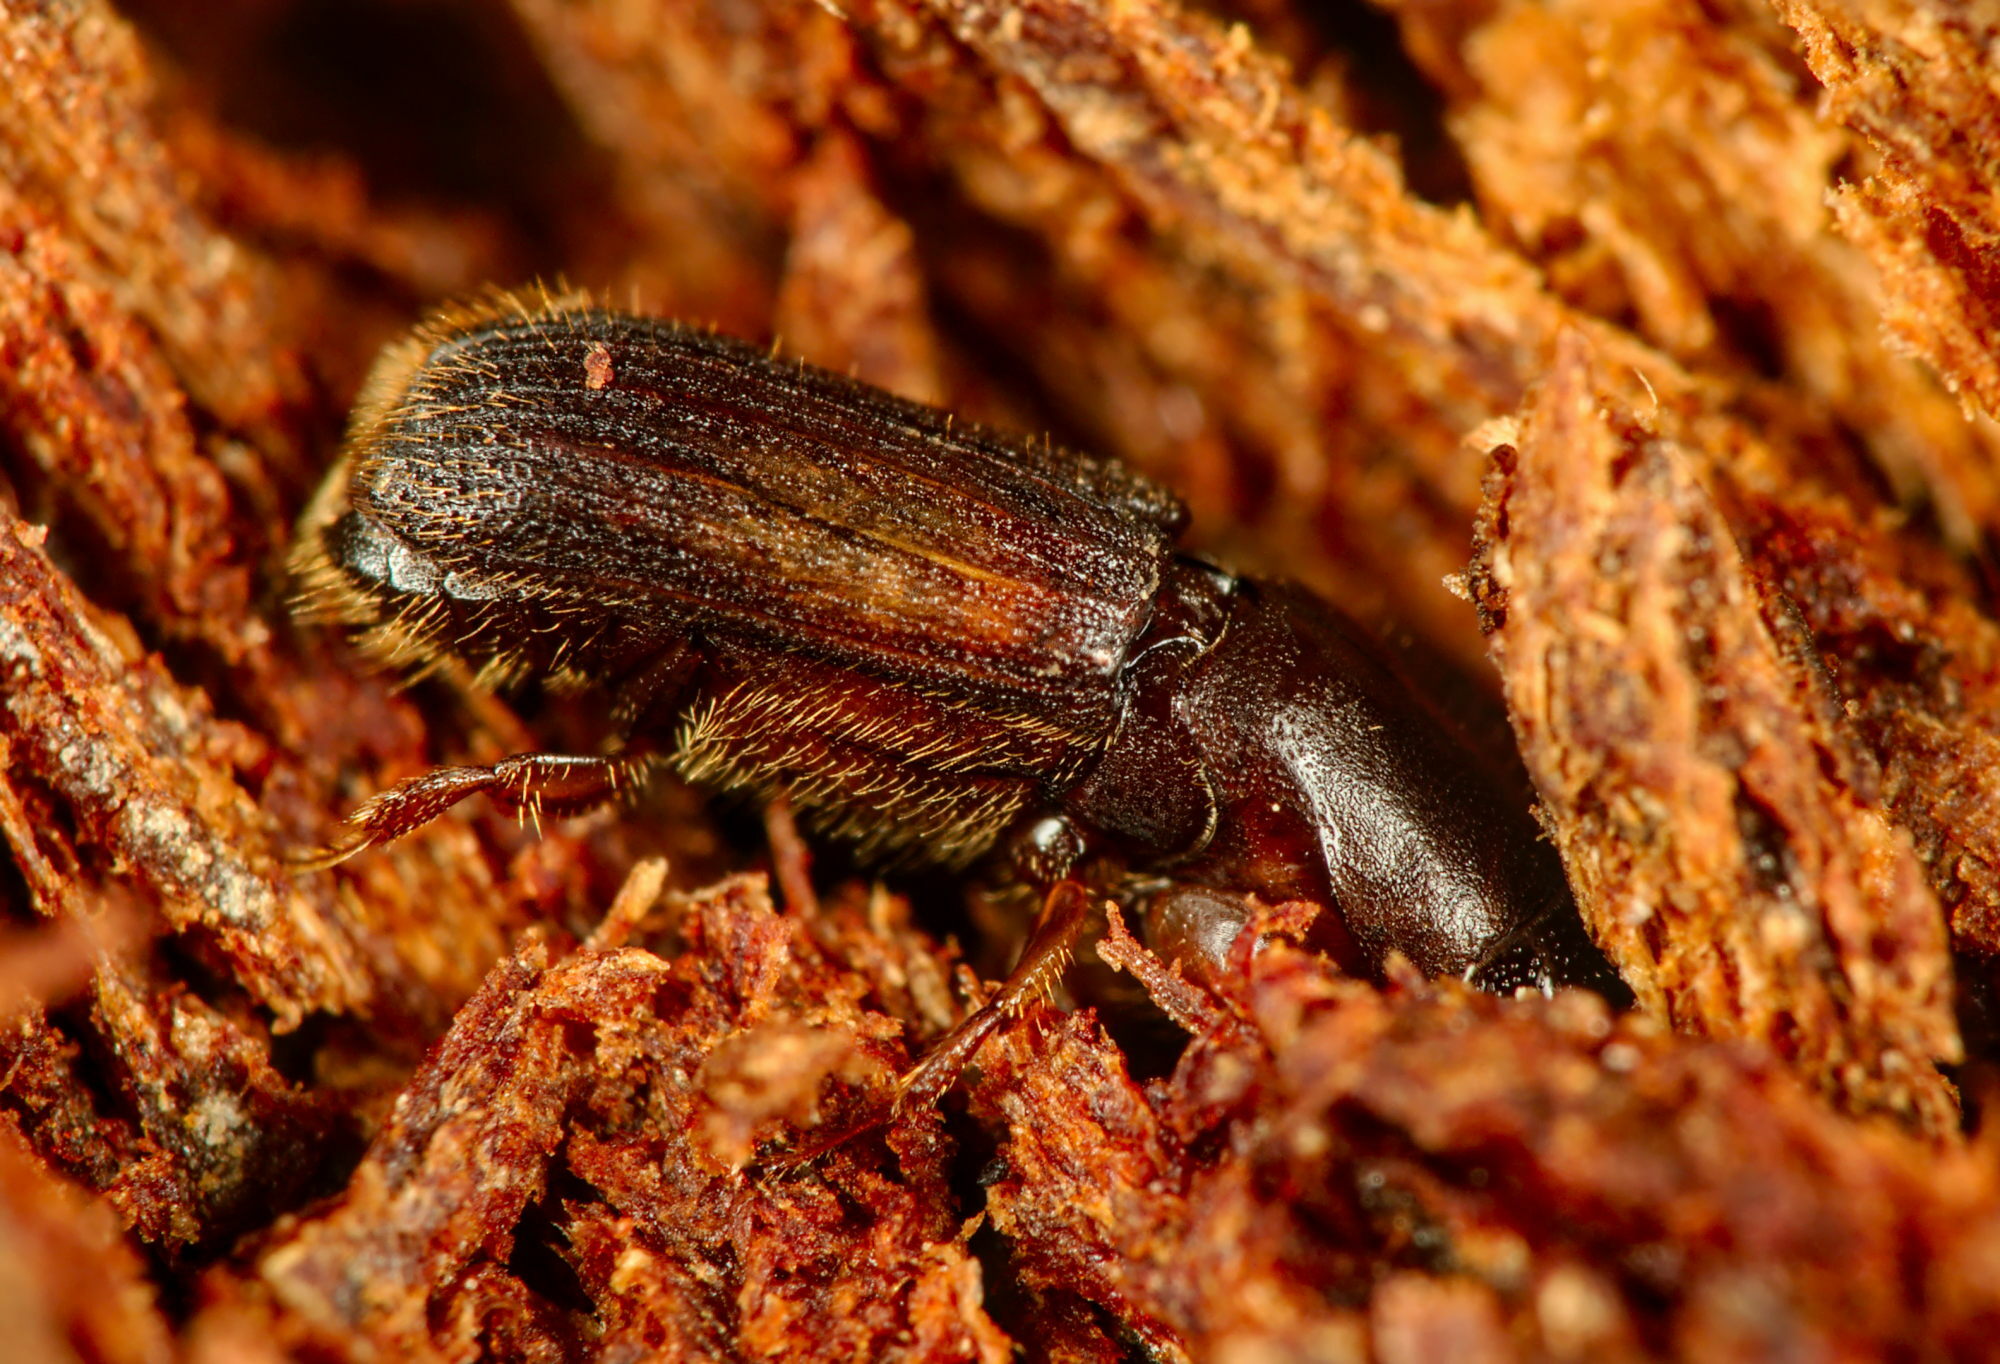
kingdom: Animalia
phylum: Arthropoda
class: Insecta
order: Coleoptera
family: Curculionidae
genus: Platypus
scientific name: Platypus cylindrus
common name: Pinhole borer
